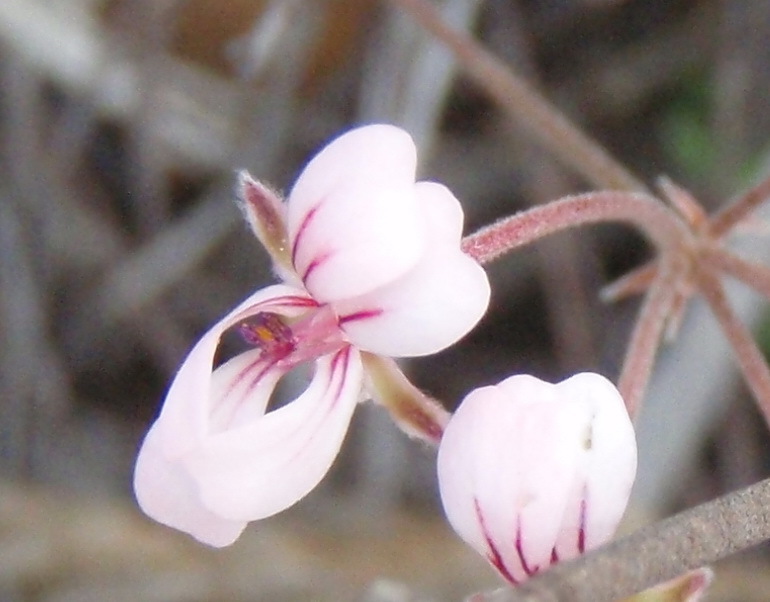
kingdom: Plantae
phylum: Tracheophyta
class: Magnoliopsida
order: Geraniales
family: Geraniaceae
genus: Pelargonium
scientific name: Pelargonium gracillimum
